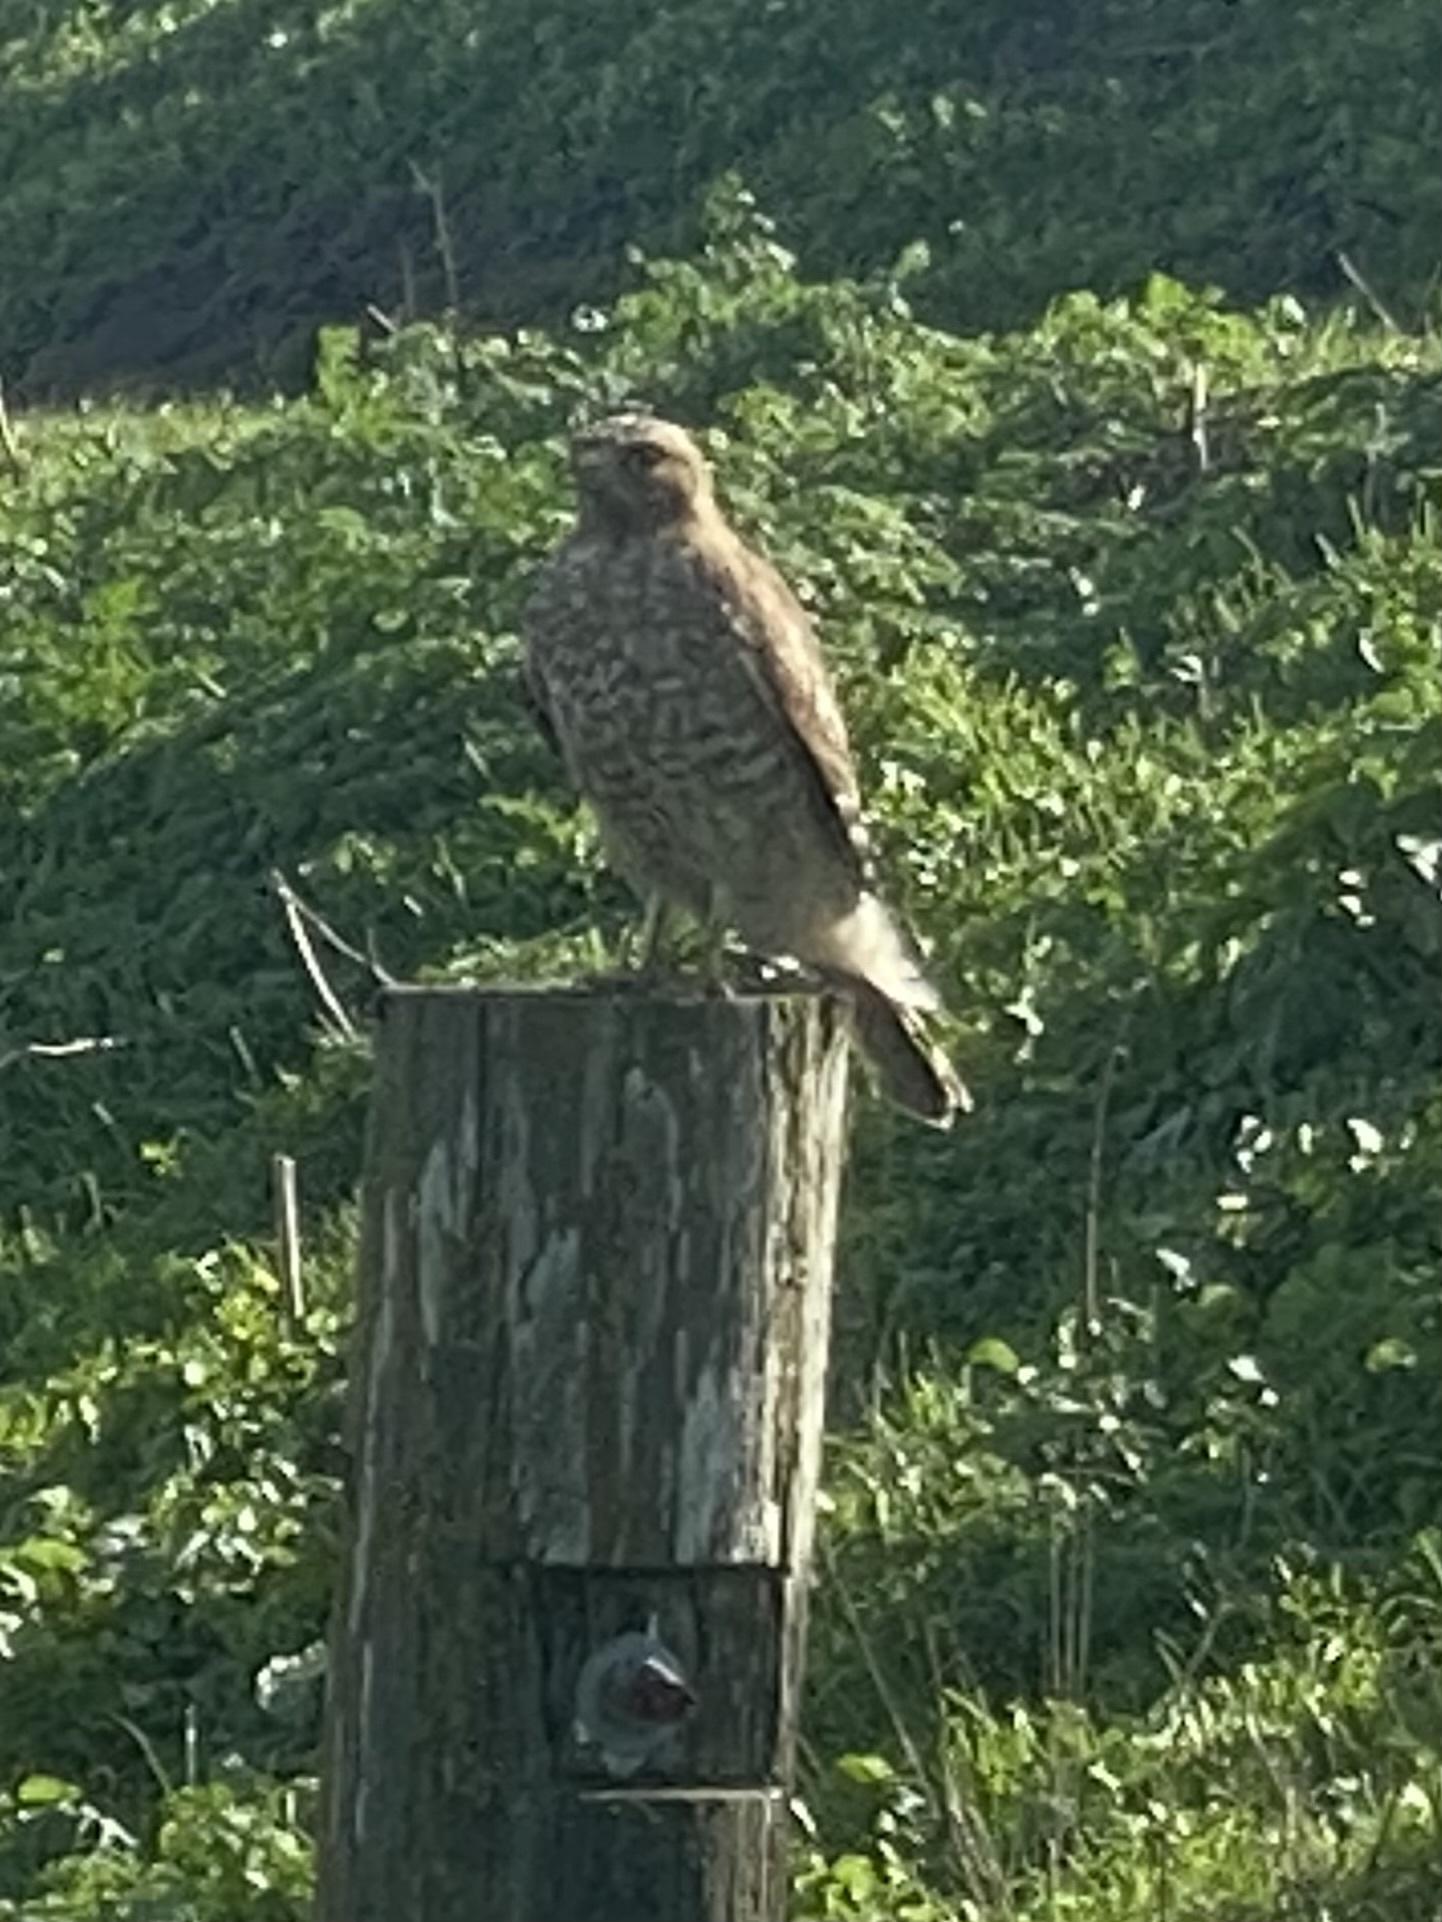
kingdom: Animalia
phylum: Chordata
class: Aves
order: Accipitriformes
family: Accipitridae
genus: Buteo
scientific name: Buteo lineatus
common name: Red-shouldered hawk
